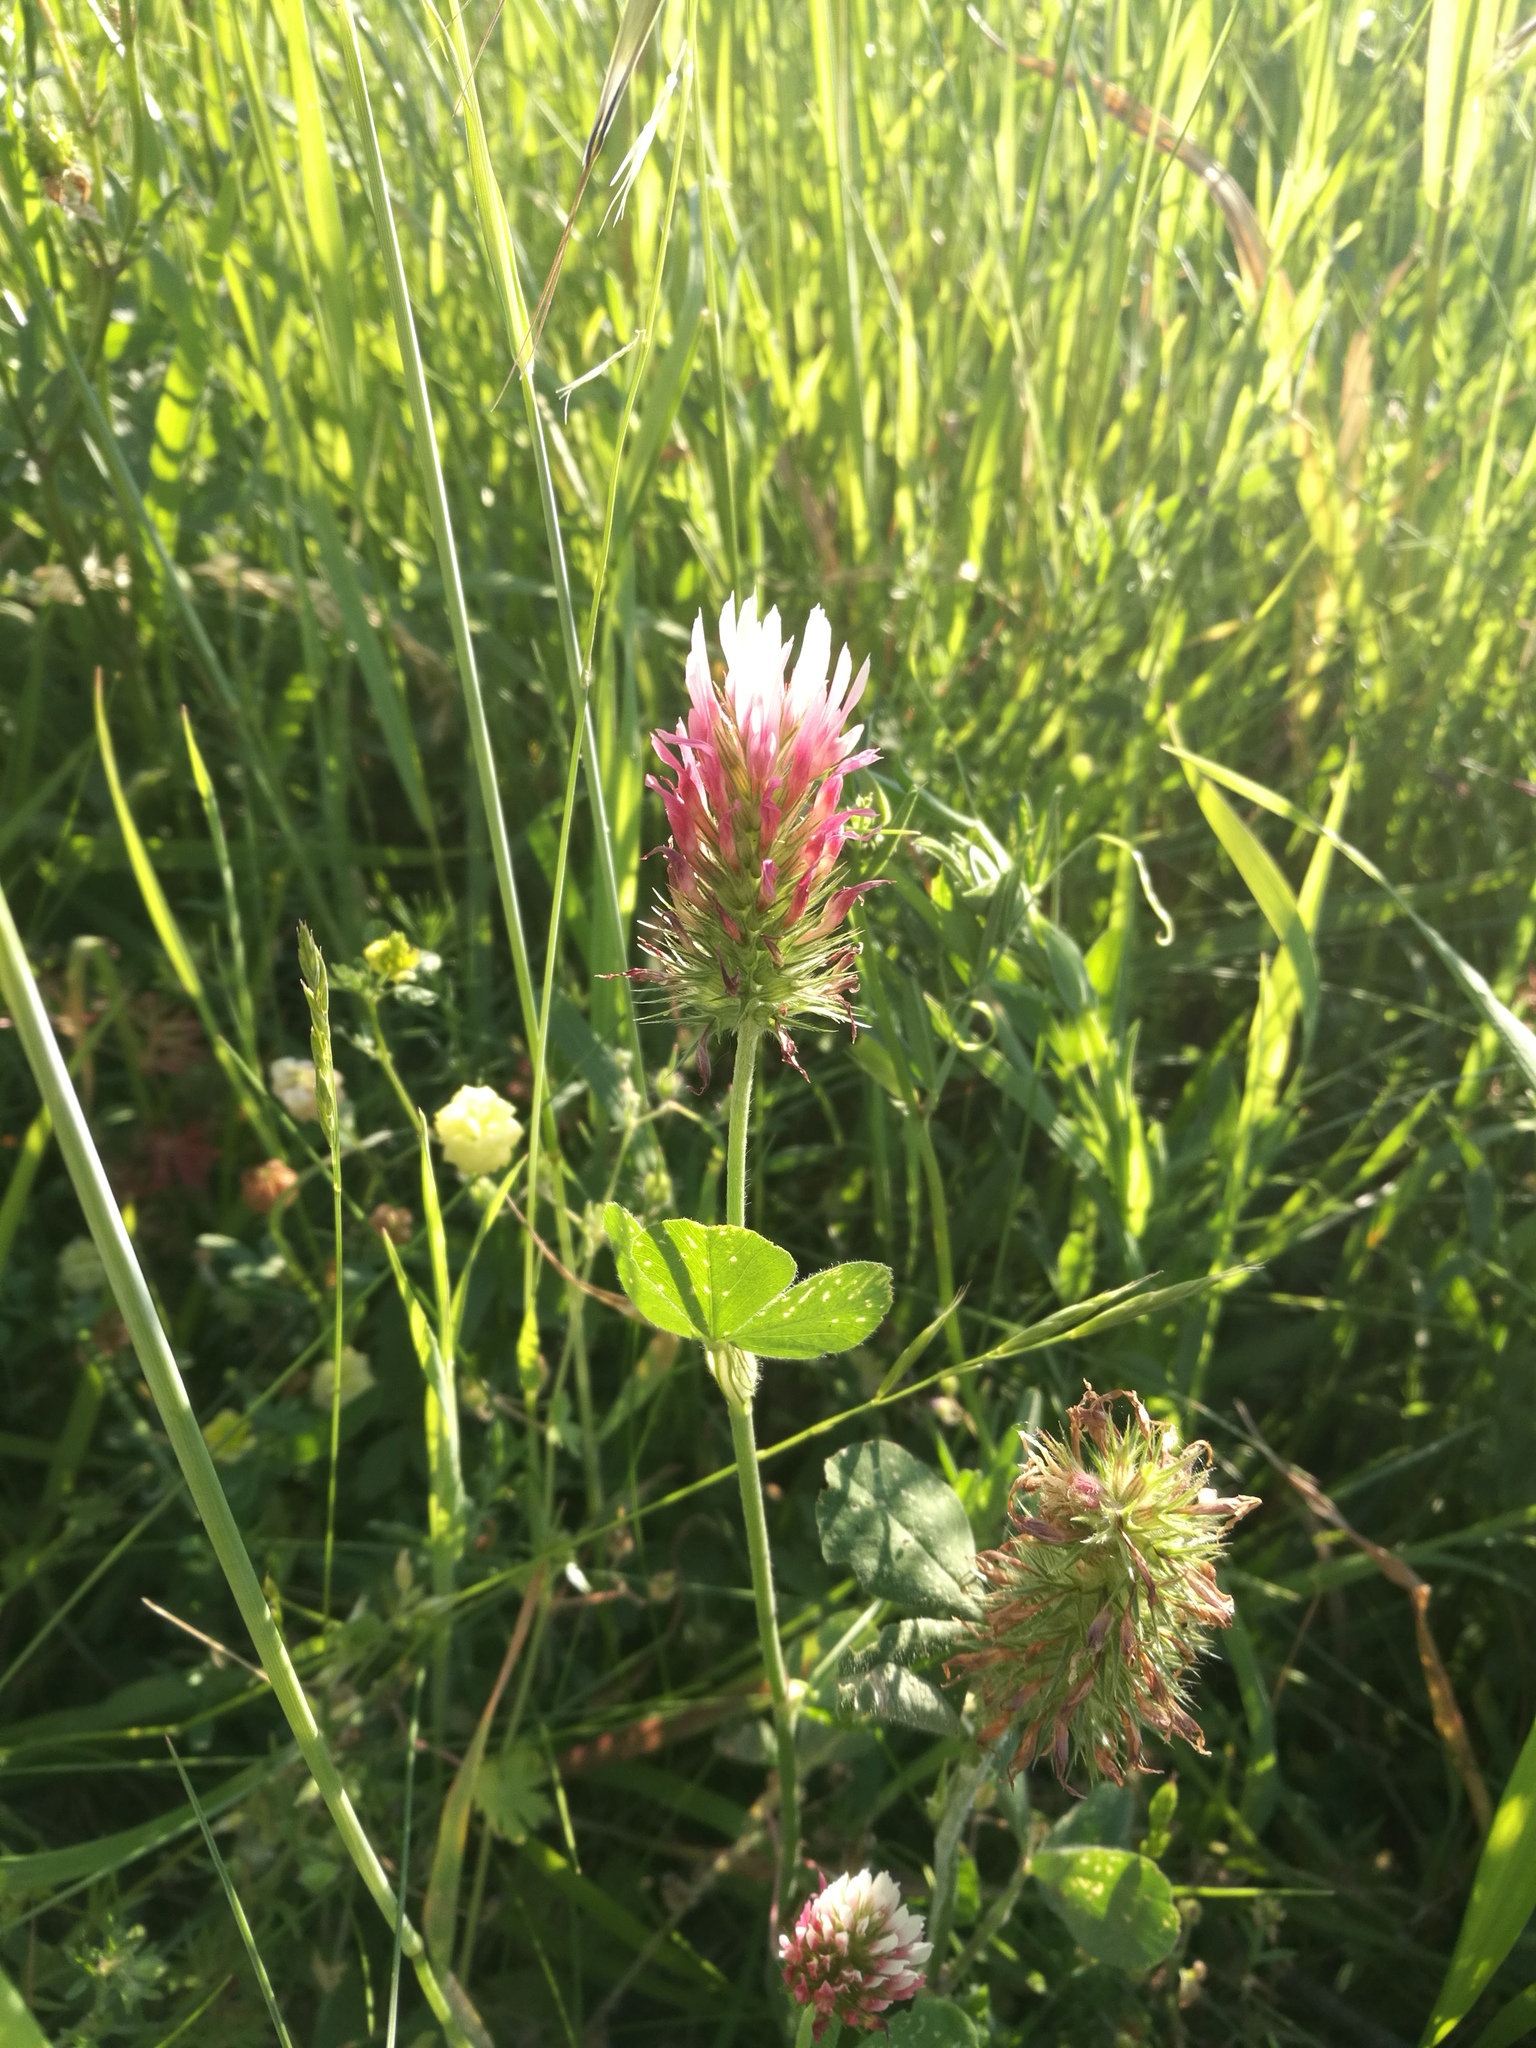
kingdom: Plantae
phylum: Tracheophyta
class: Magnoliopsida
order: Fabales
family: Fabaceae
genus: Trifolium
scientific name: Trifolium incarnatum
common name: Crimson clover
